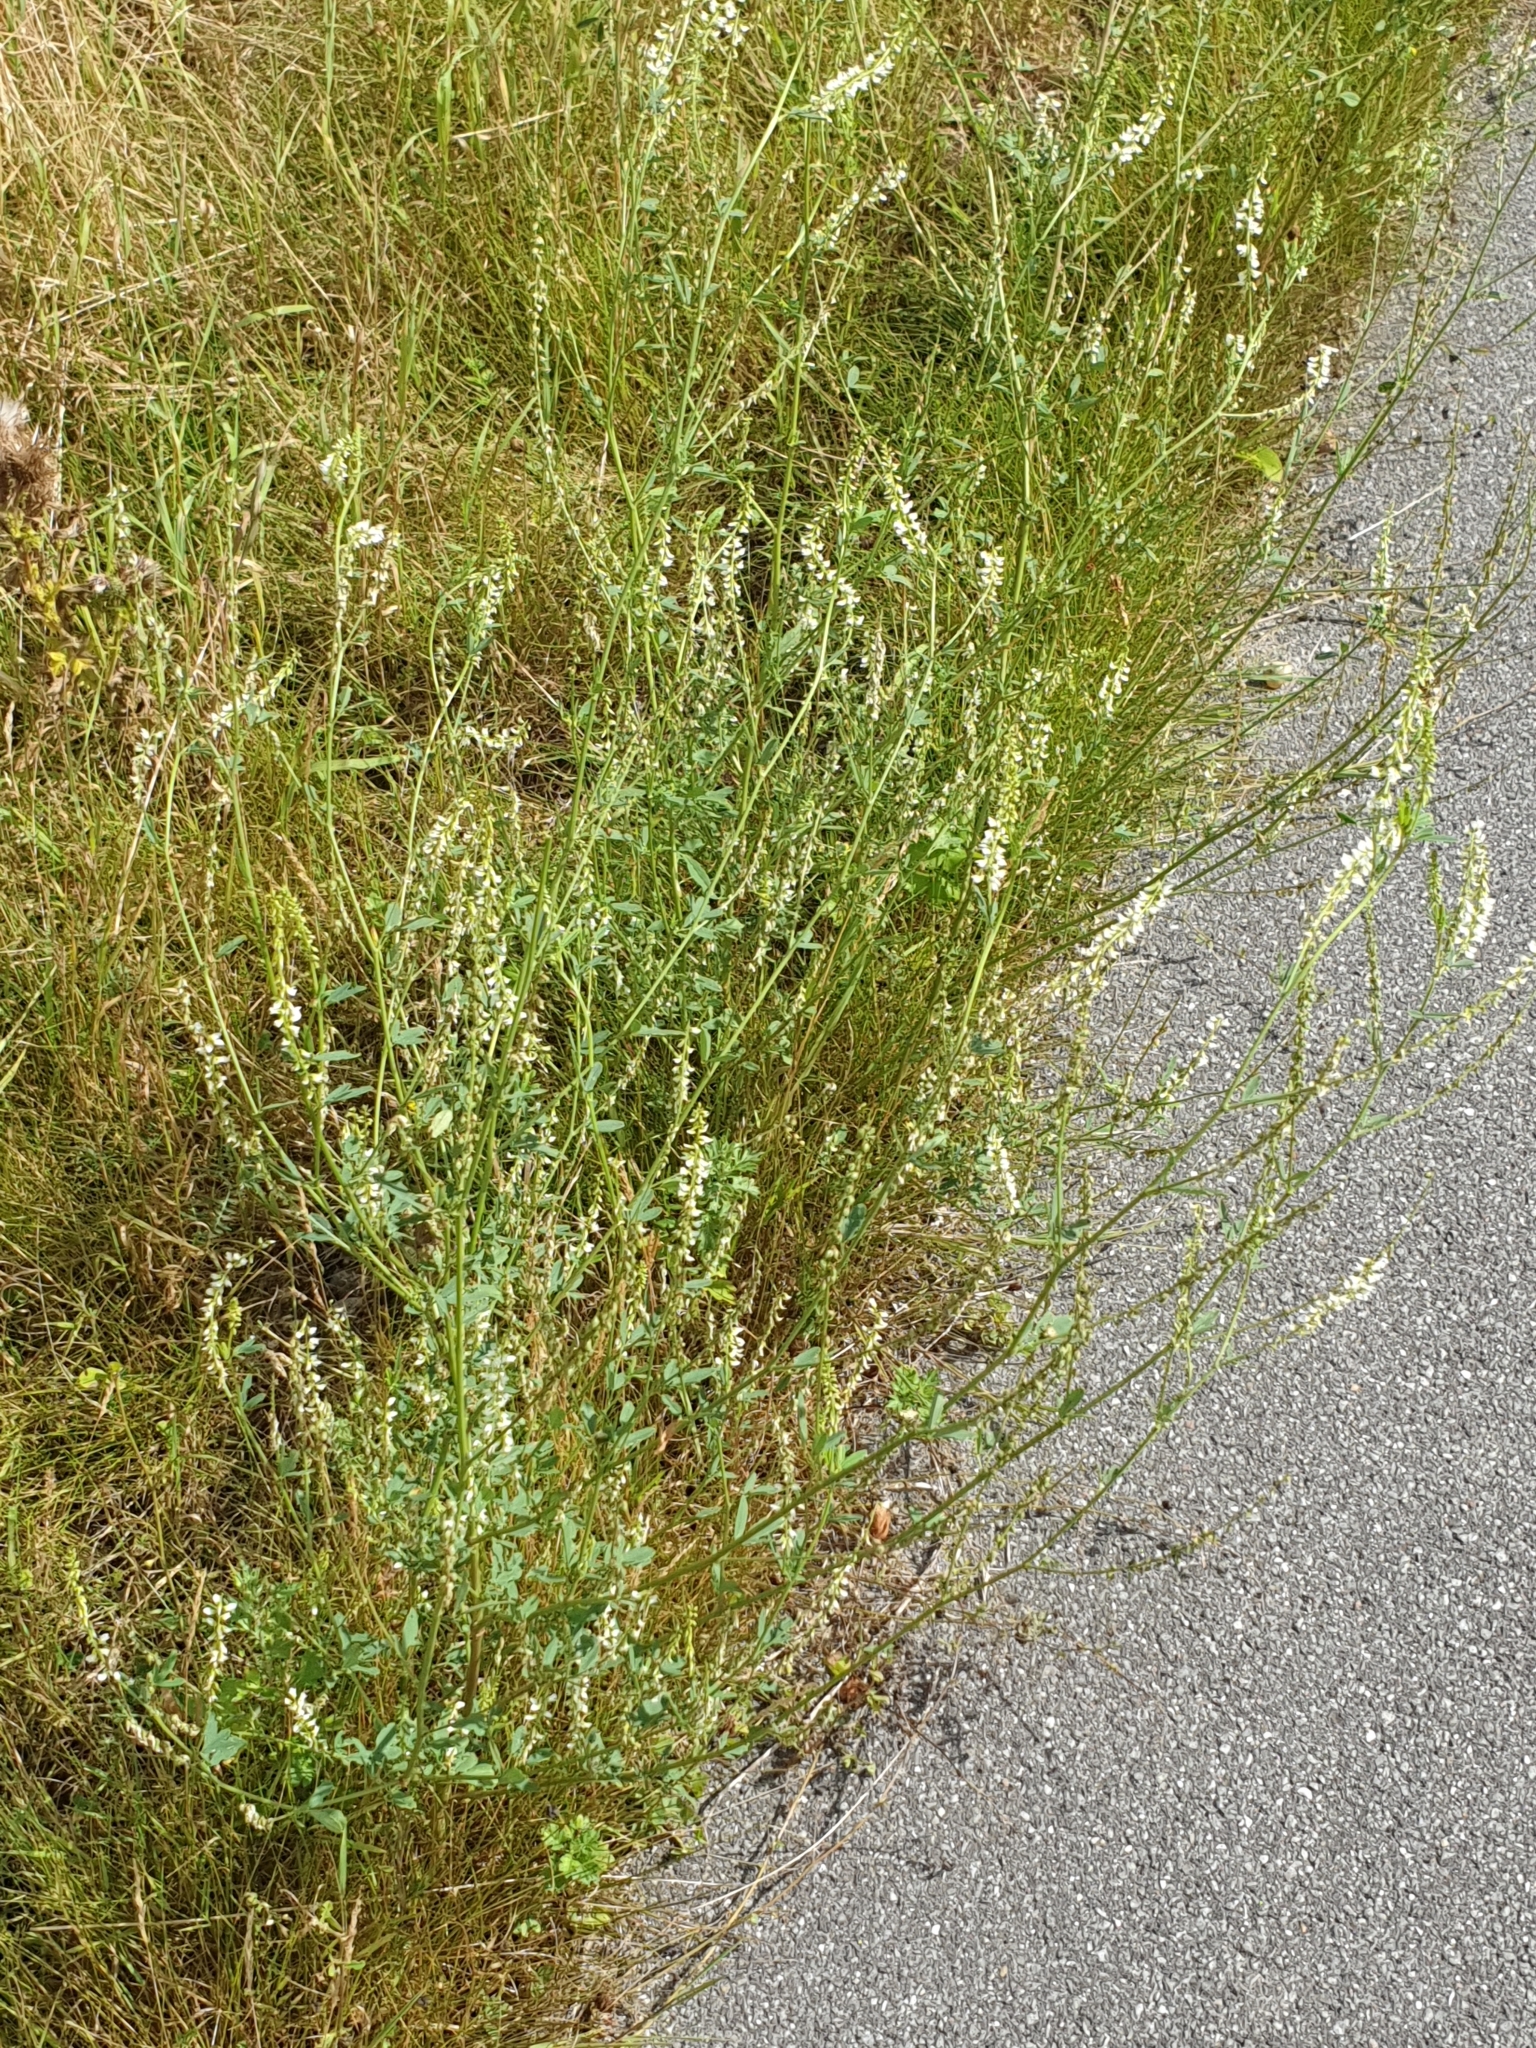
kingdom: Plantae
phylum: Tracheophyta
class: Magnoliopsida
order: Fabales
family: Fabaceae
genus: Melilotus
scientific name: Melilotus albus
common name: White melilot
